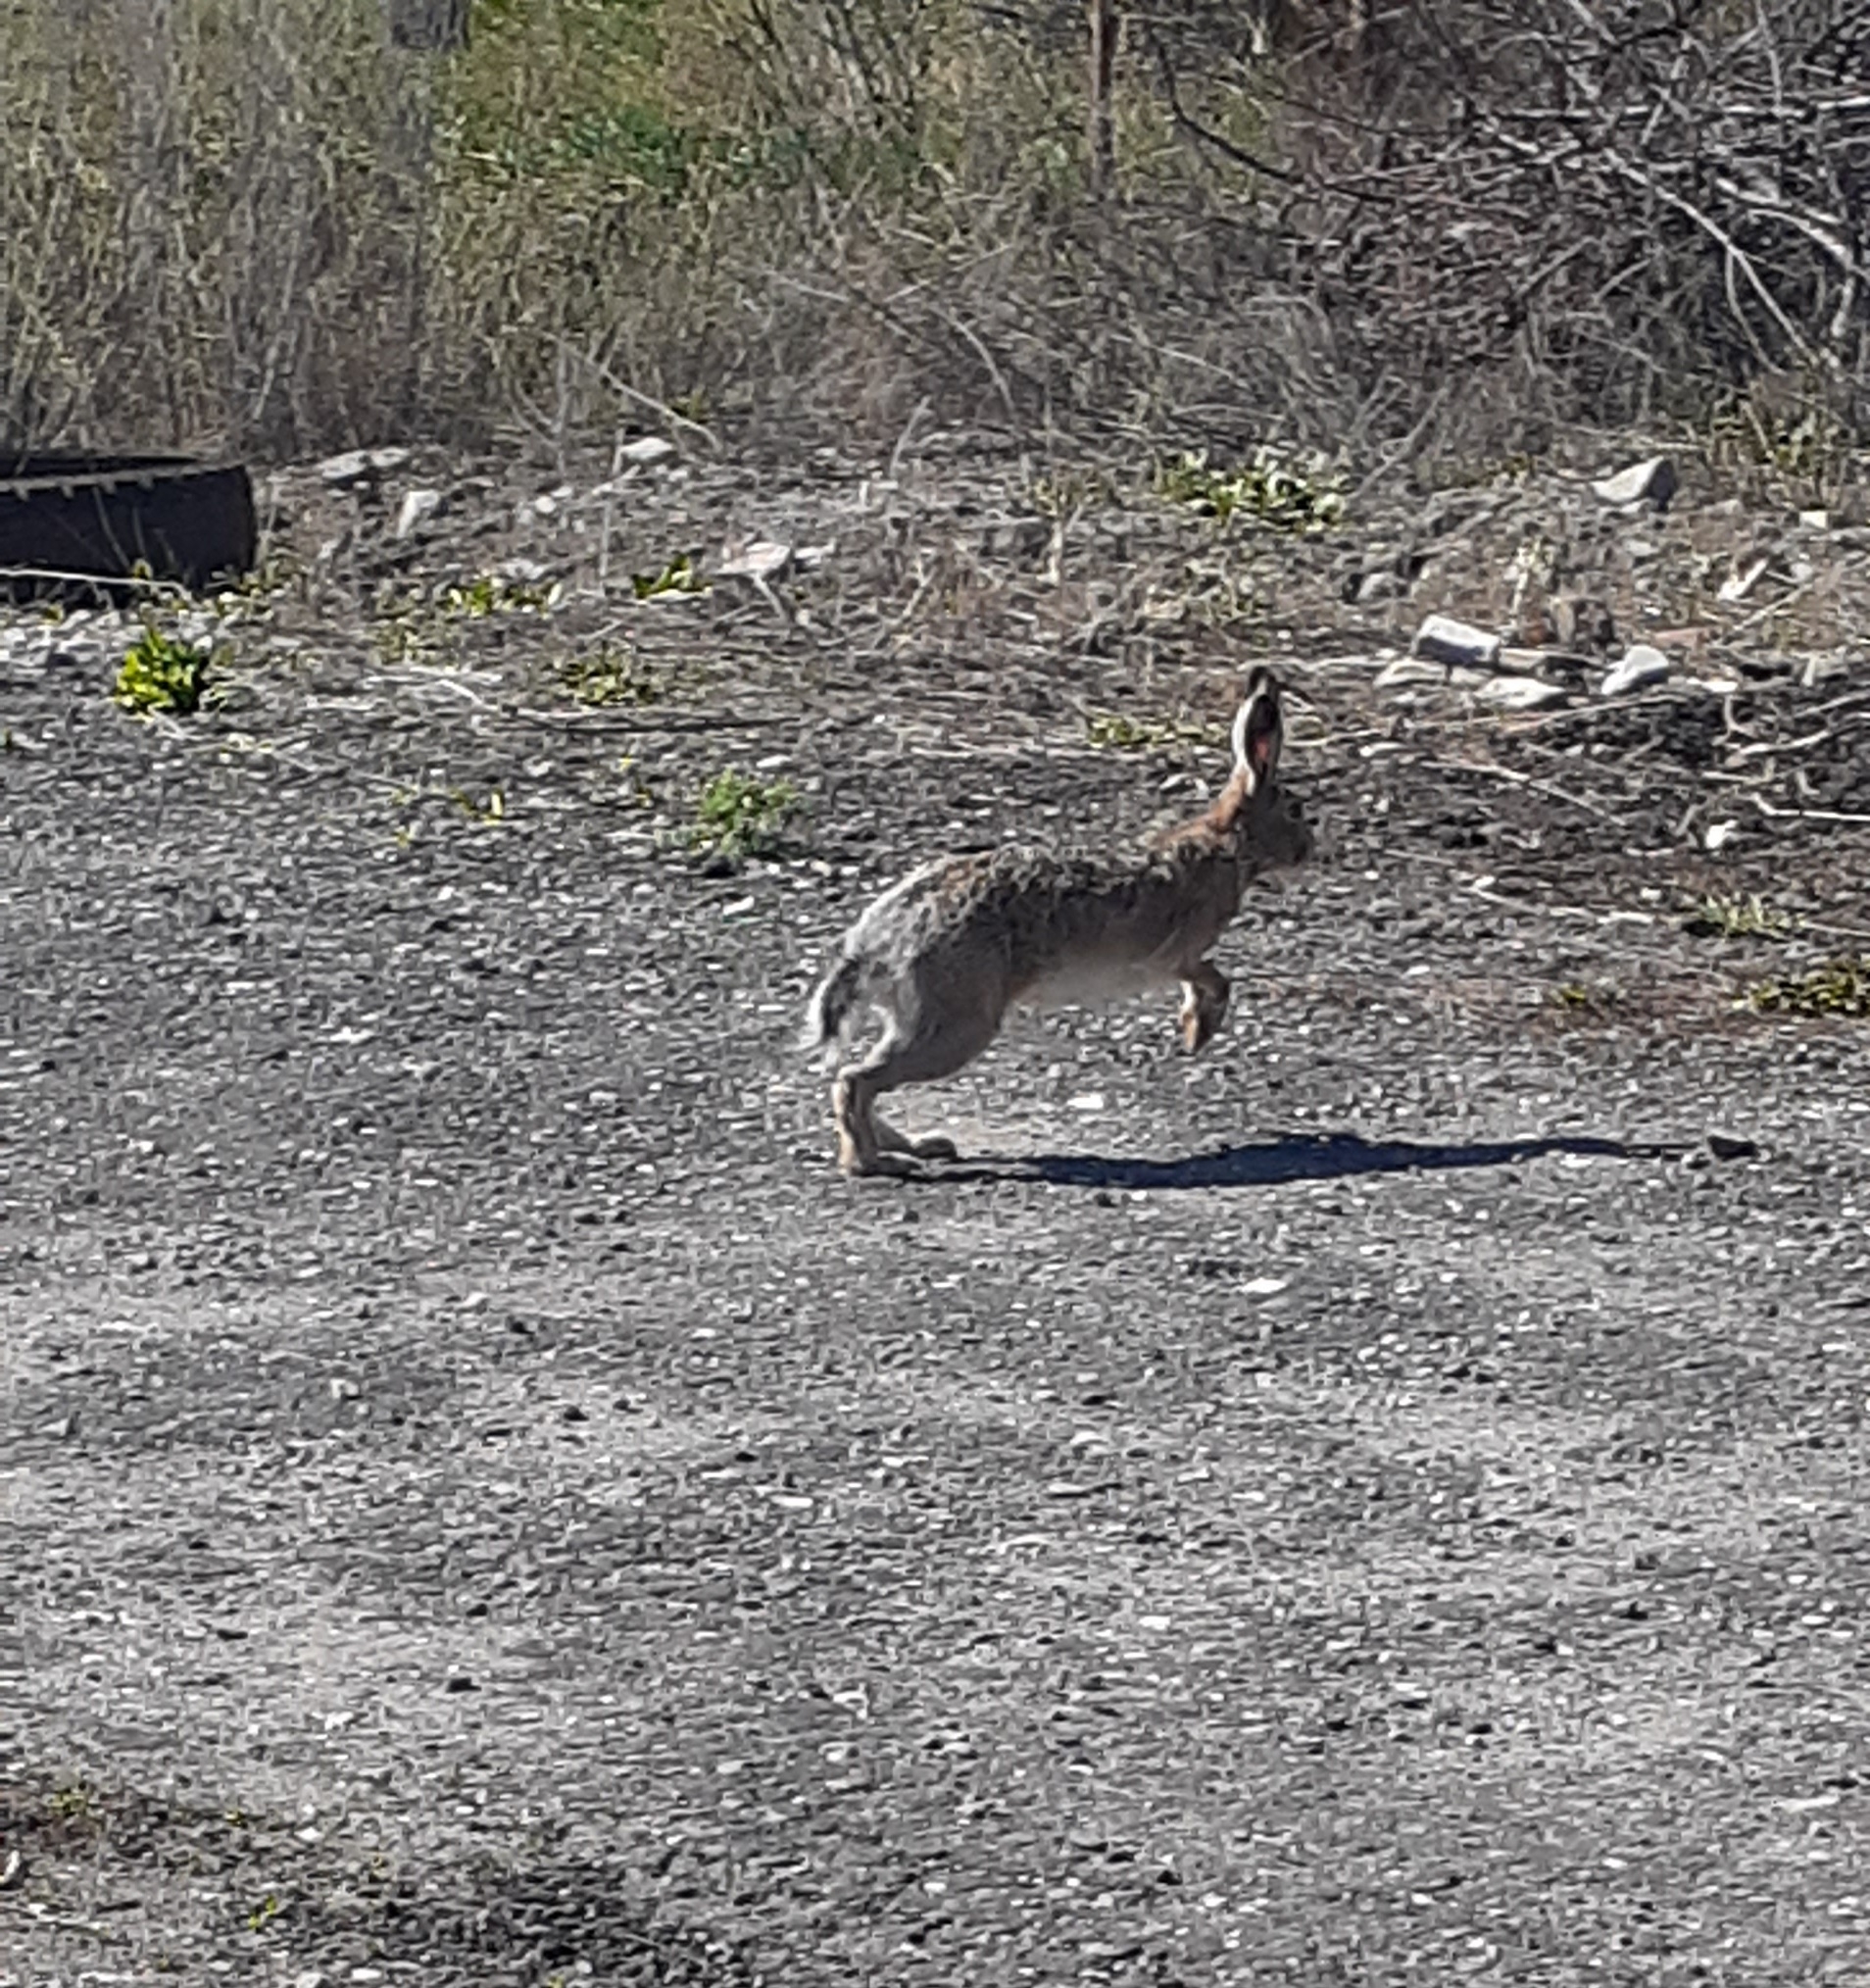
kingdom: Animalia
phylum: Chordata
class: Mammalia
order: Lagomorpha
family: Leporidae
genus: Lepus
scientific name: Lepus europaeus
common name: European hare
